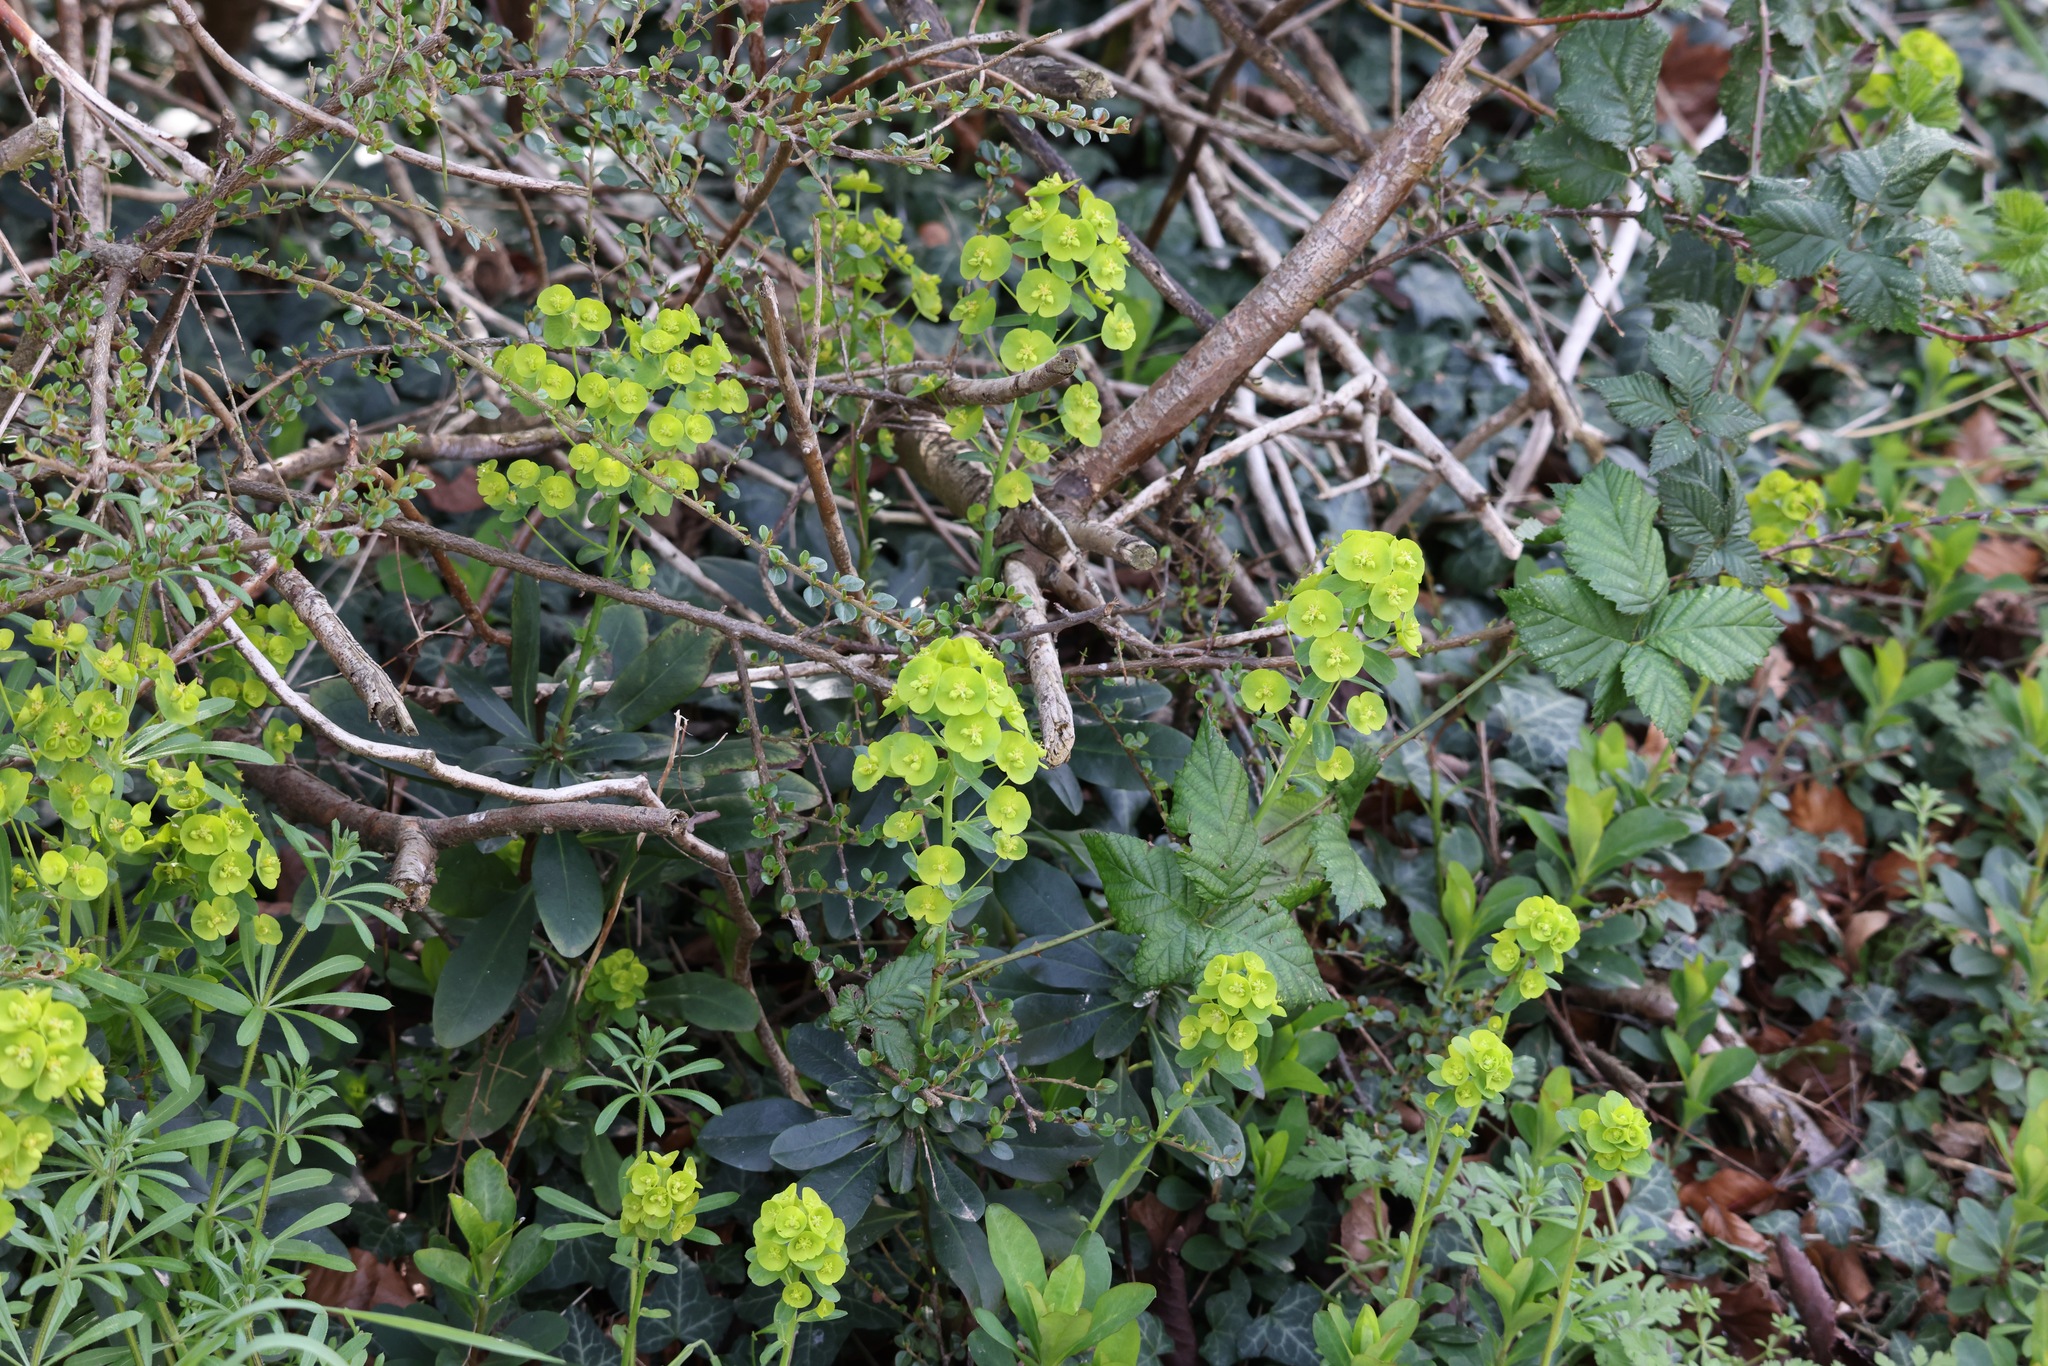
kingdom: Plantae
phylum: Tracheophyta
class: Magnoliopsida
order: Malpighiales
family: Euphorbiaceae
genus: Euphorbia
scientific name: Euphorbia amygdaloides
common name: Wood spurge
